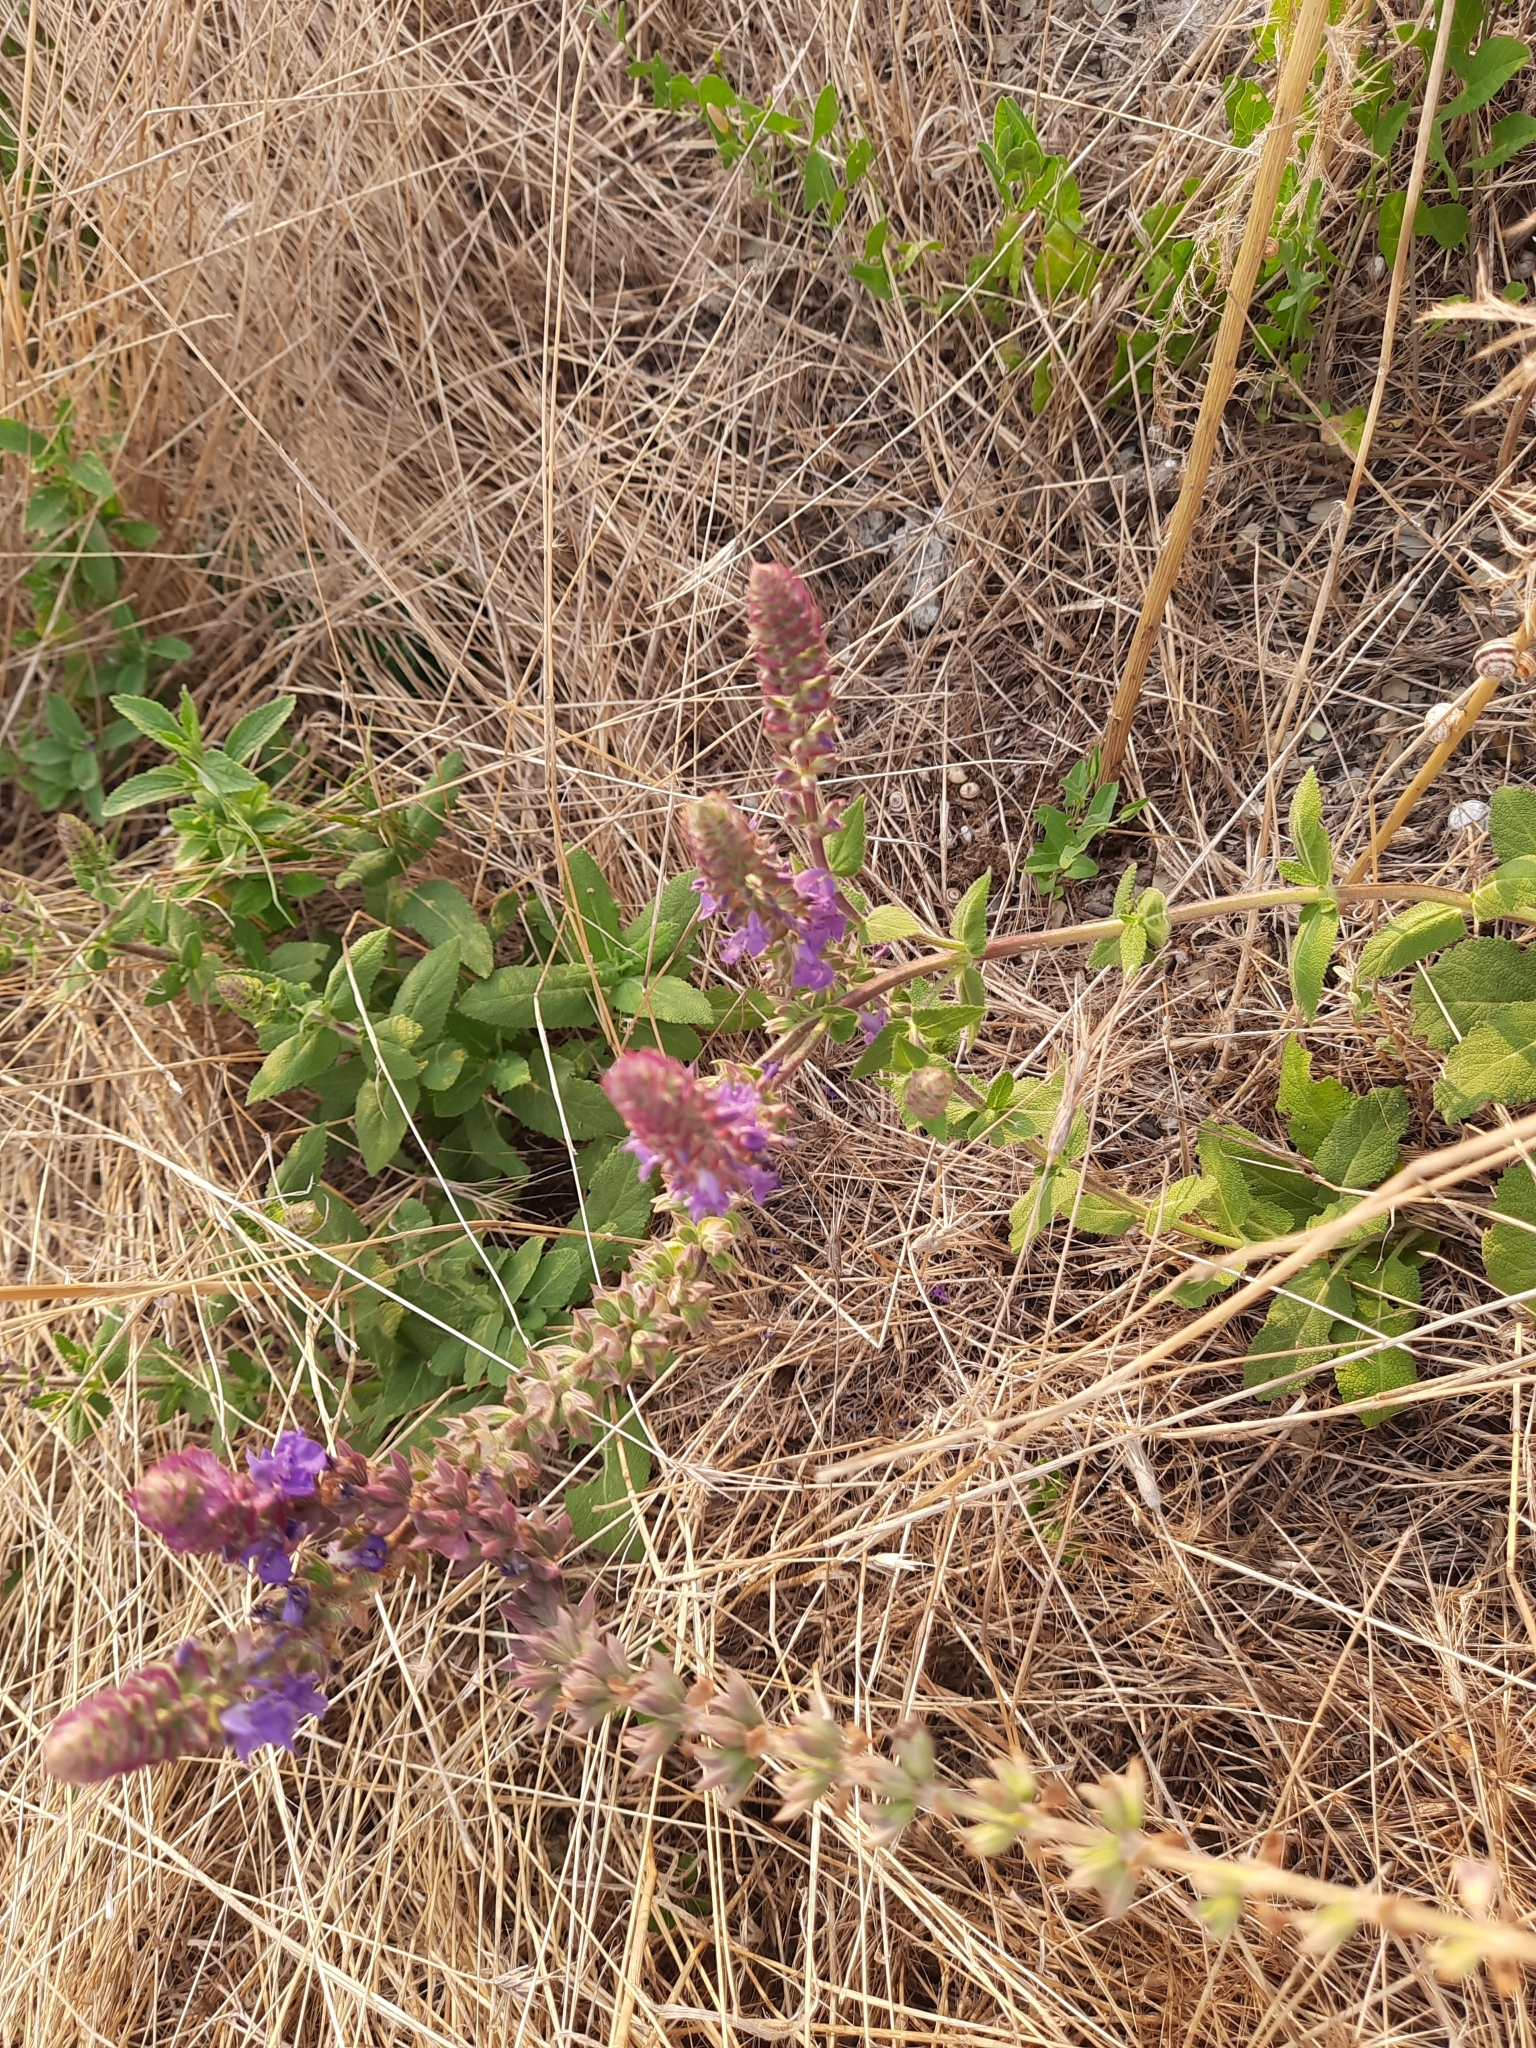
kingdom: Plantae
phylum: Tracheophyta
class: Magnoliopsida
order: Lamiales
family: Lamiaceae
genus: Salvia
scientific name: Salvia nemorosa
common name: Balkan clary
